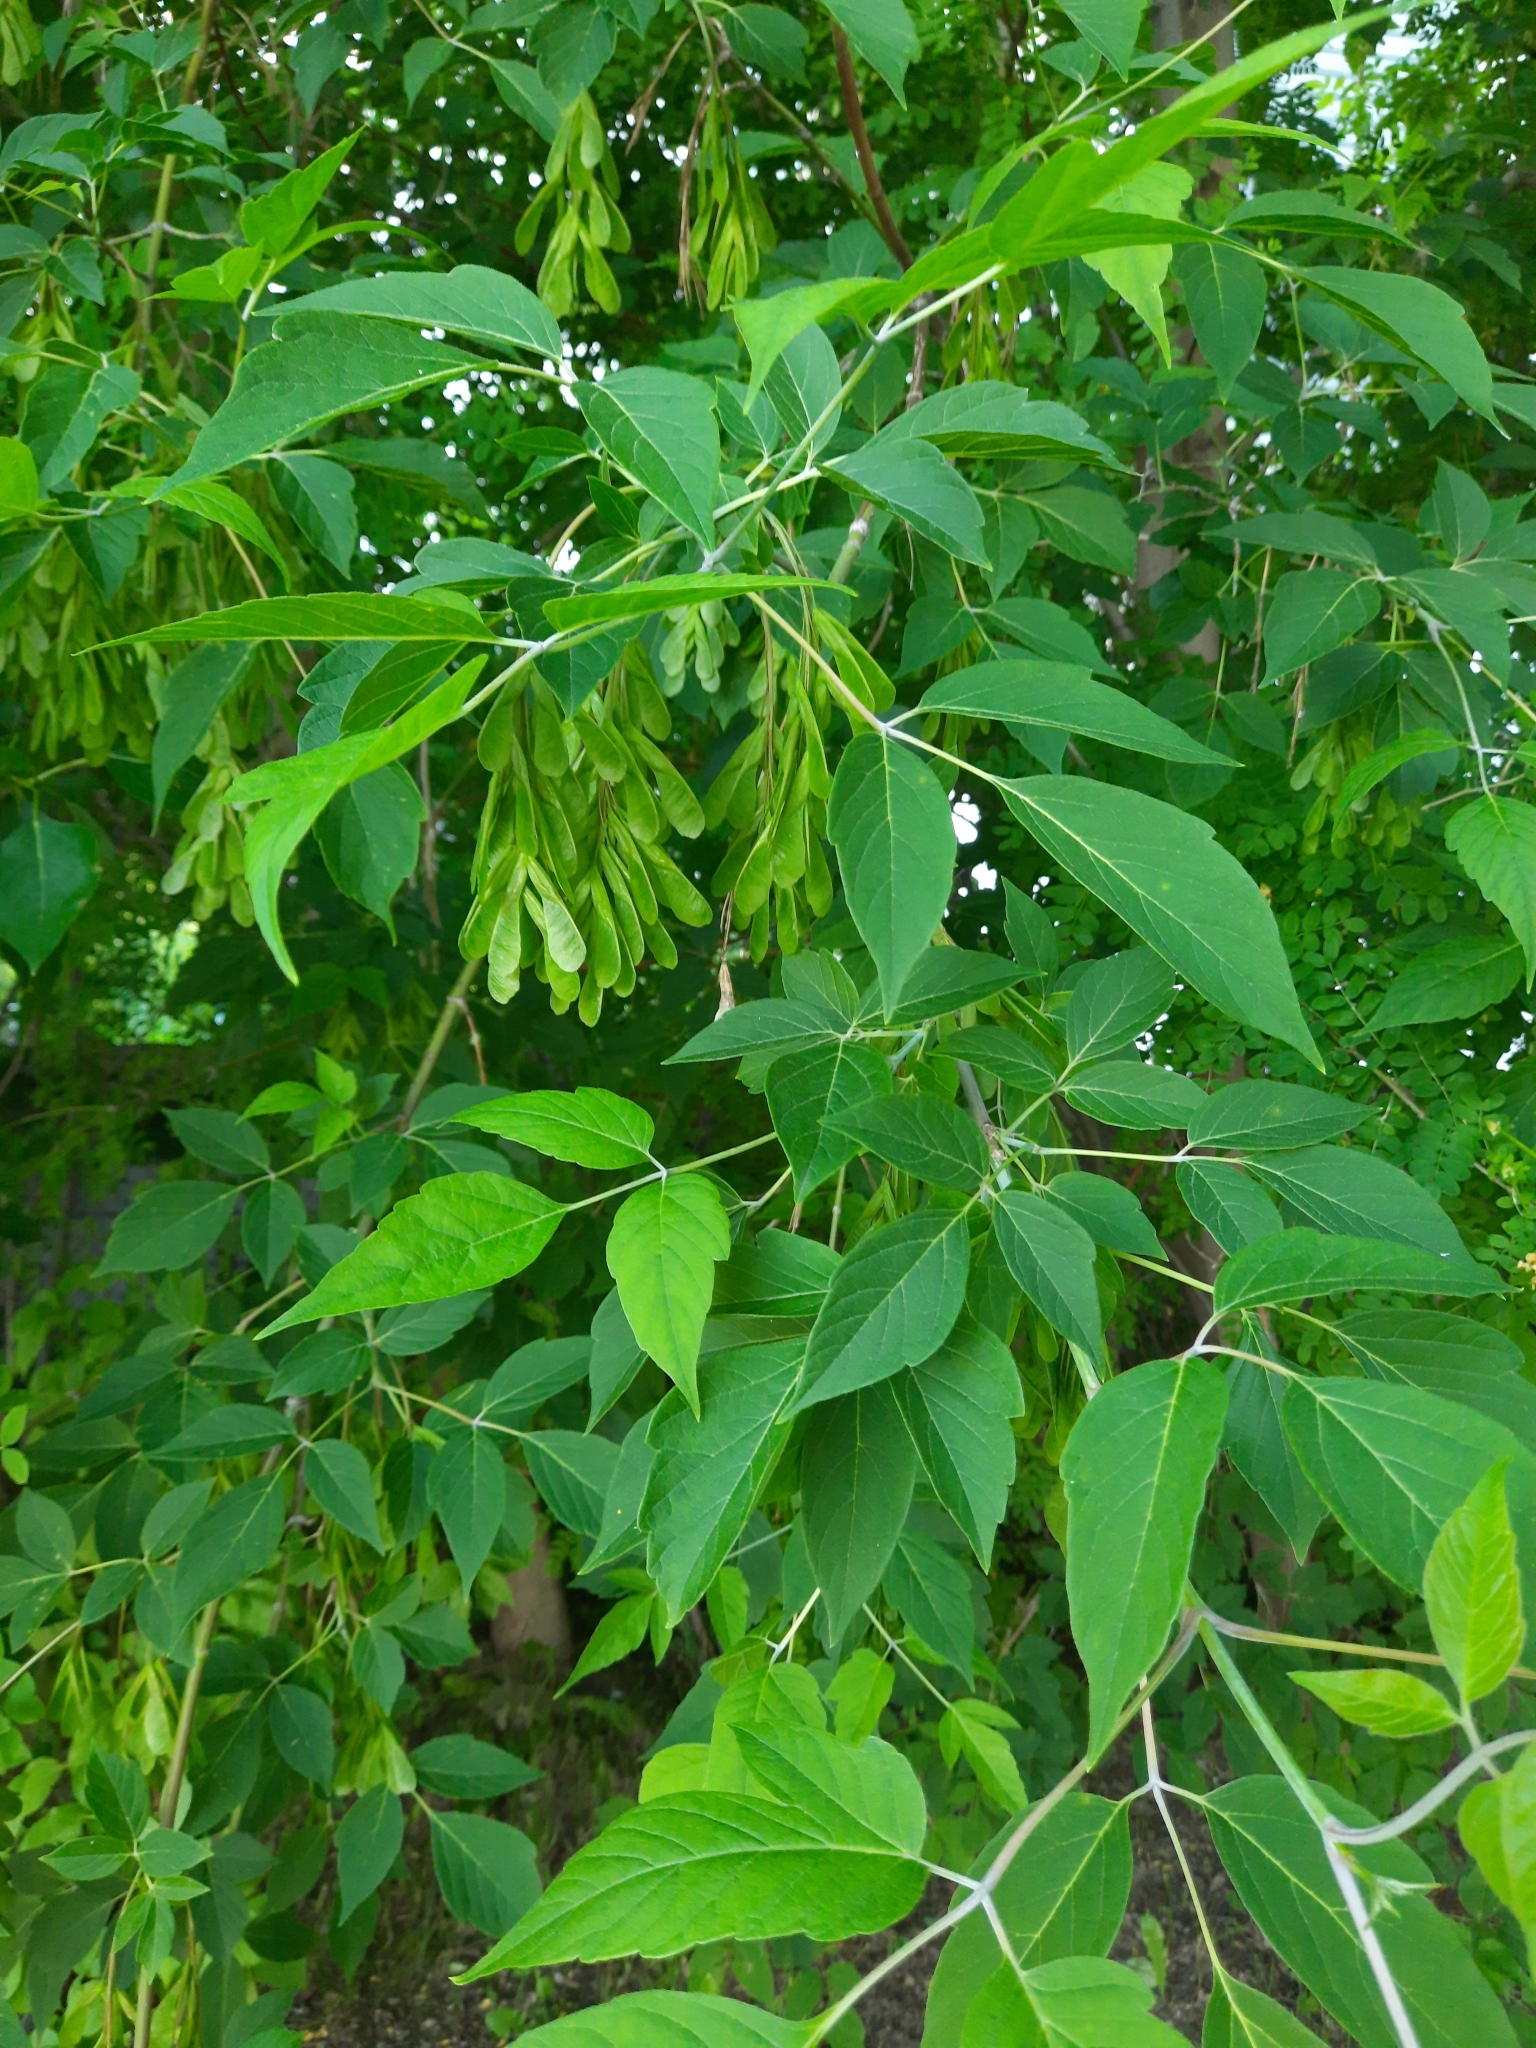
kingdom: Plantae
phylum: Tracheophyta
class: Magnoliopsida
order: Sapindales
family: Sapindaceae
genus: Acer
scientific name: Acer negundo
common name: Ashleaf maple
